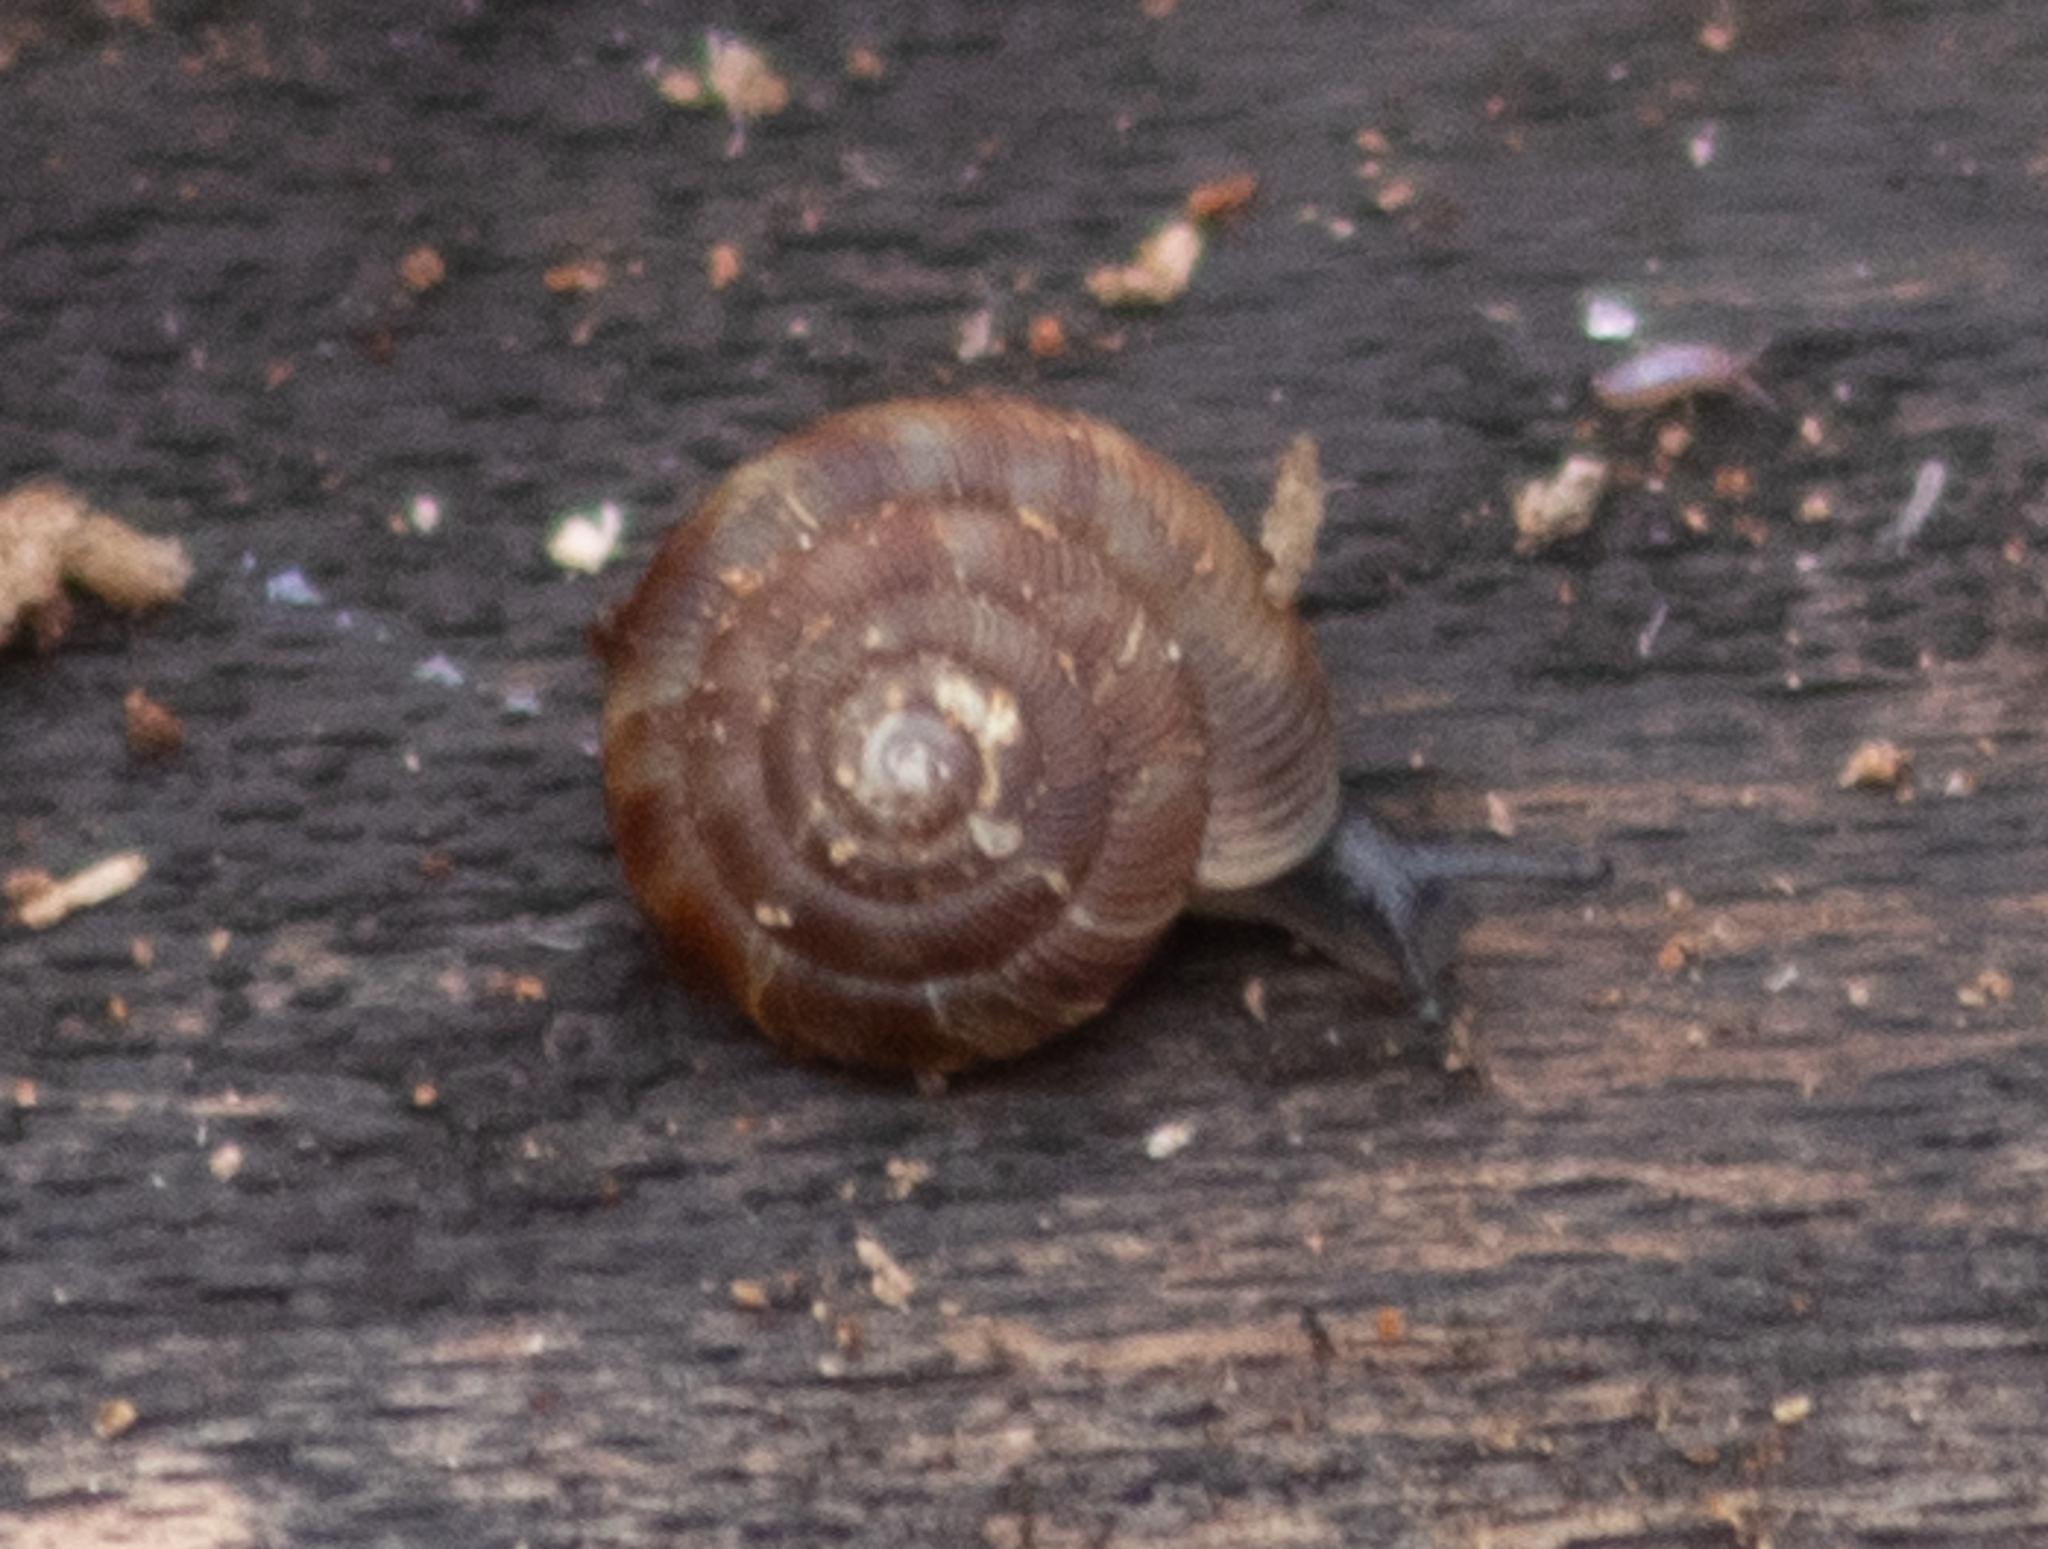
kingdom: Animalia
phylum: Mollusca
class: Gastropoda
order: Stylommatophora
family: Discidae
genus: Discus
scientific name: Discus rotundatus
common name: Rounded snail
